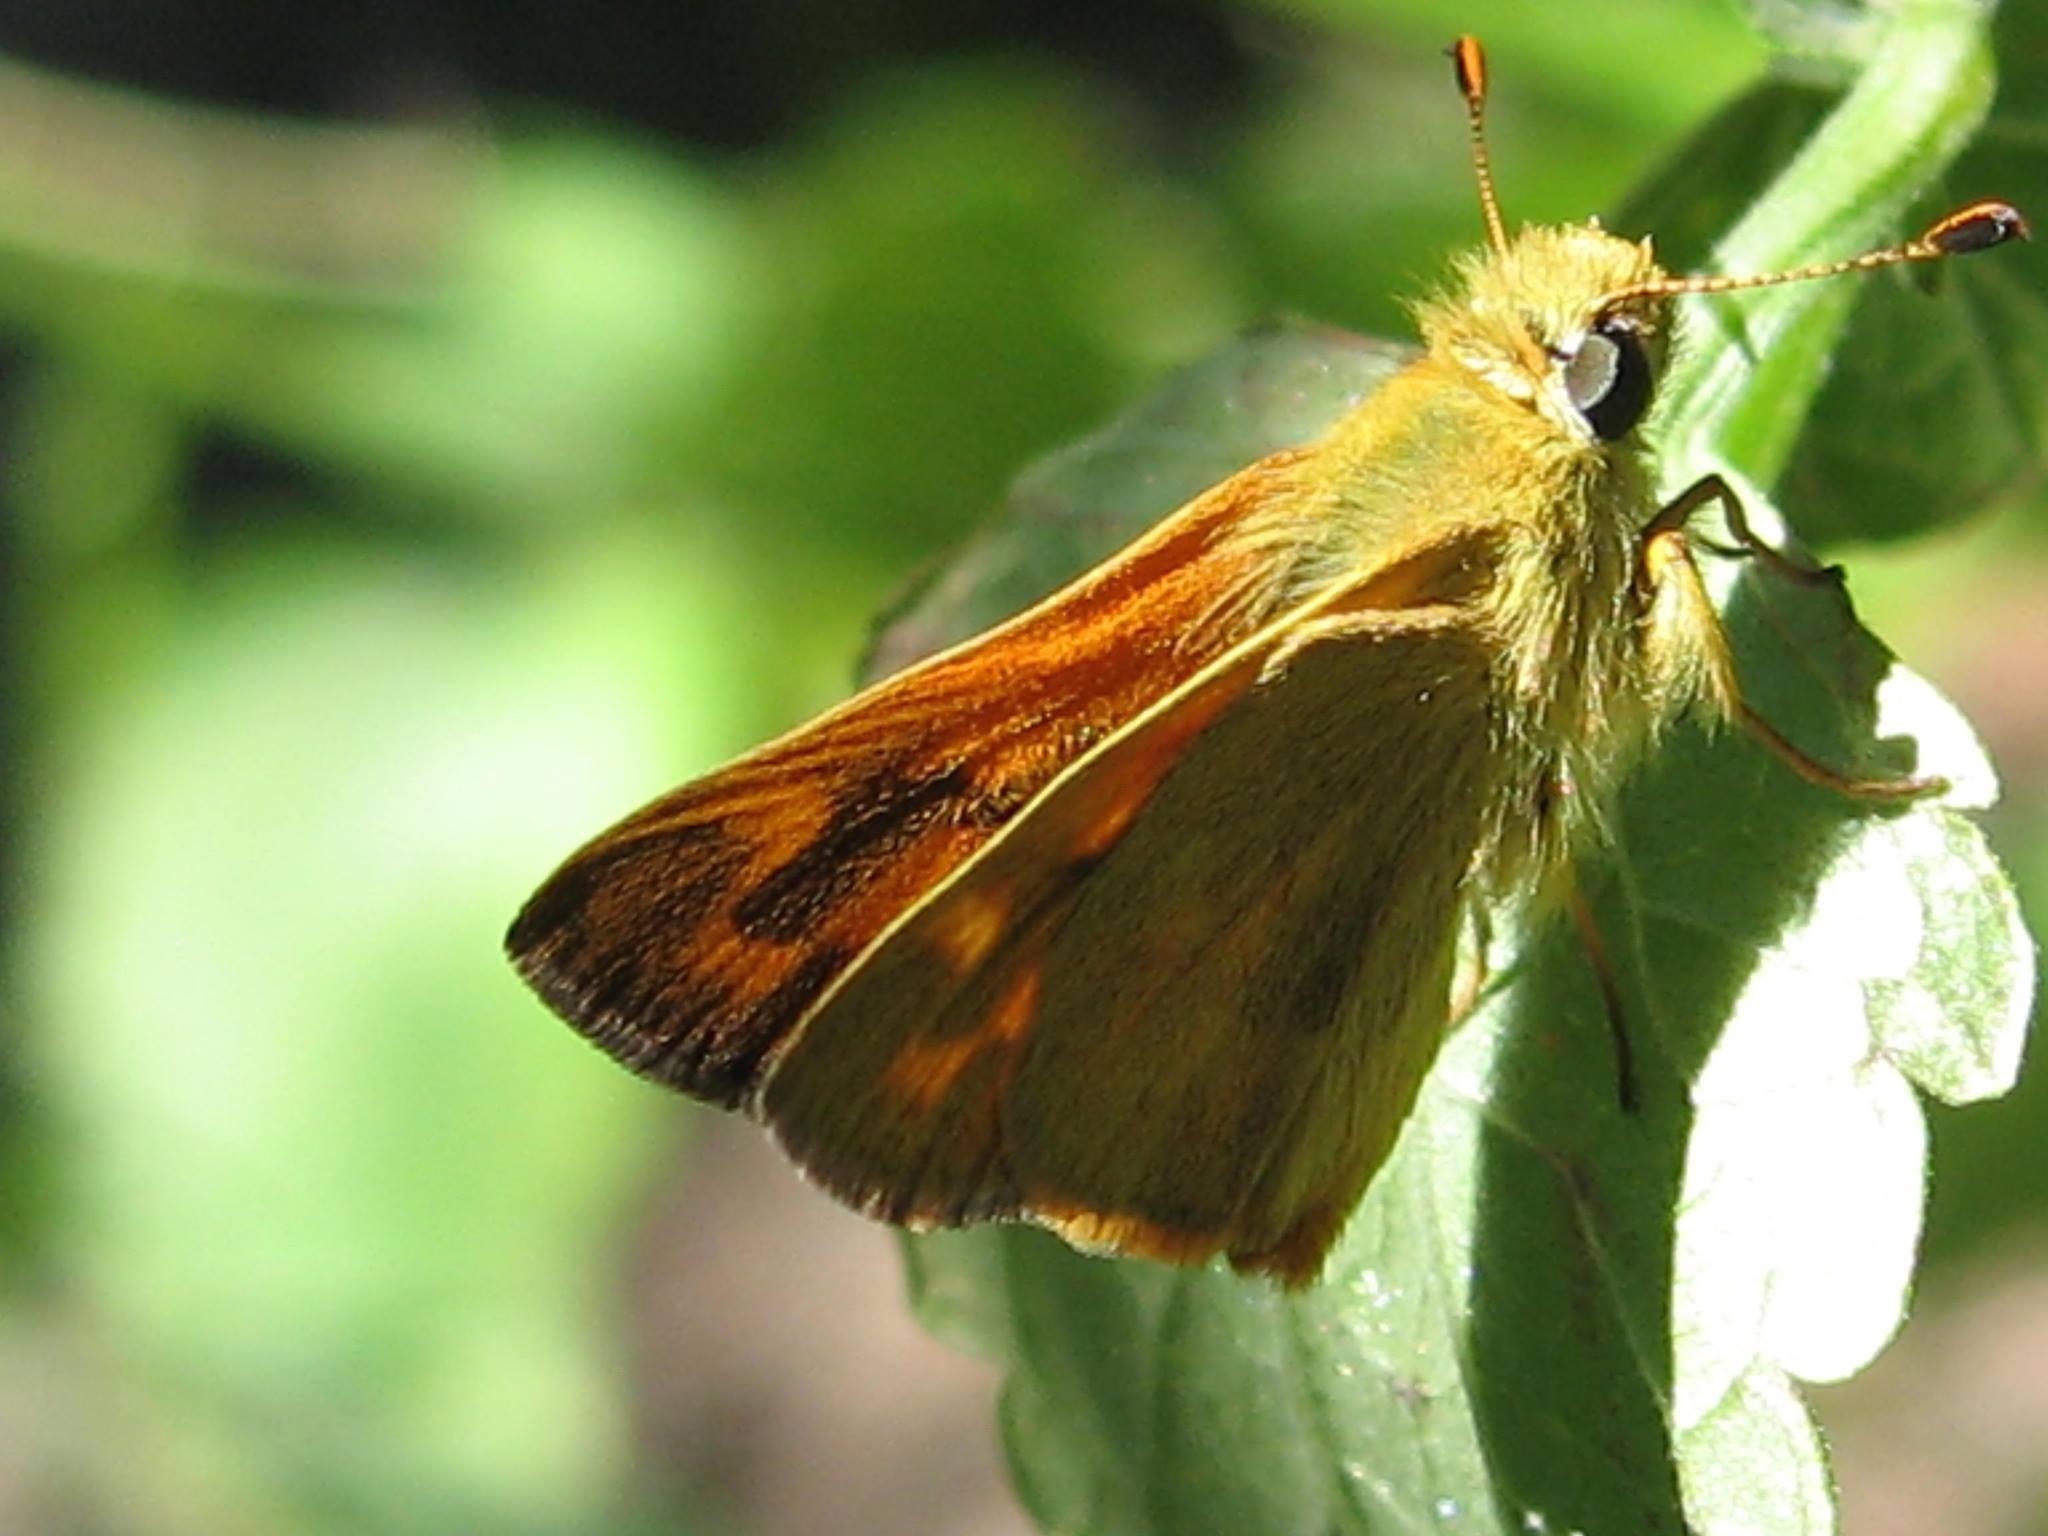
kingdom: Animalia
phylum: Arthropoda
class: Insecta
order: Lepidoptera
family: Hesperiidae
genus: Ochlodes
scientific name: Ochlodes sylvanoides
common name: Woodland skipper
